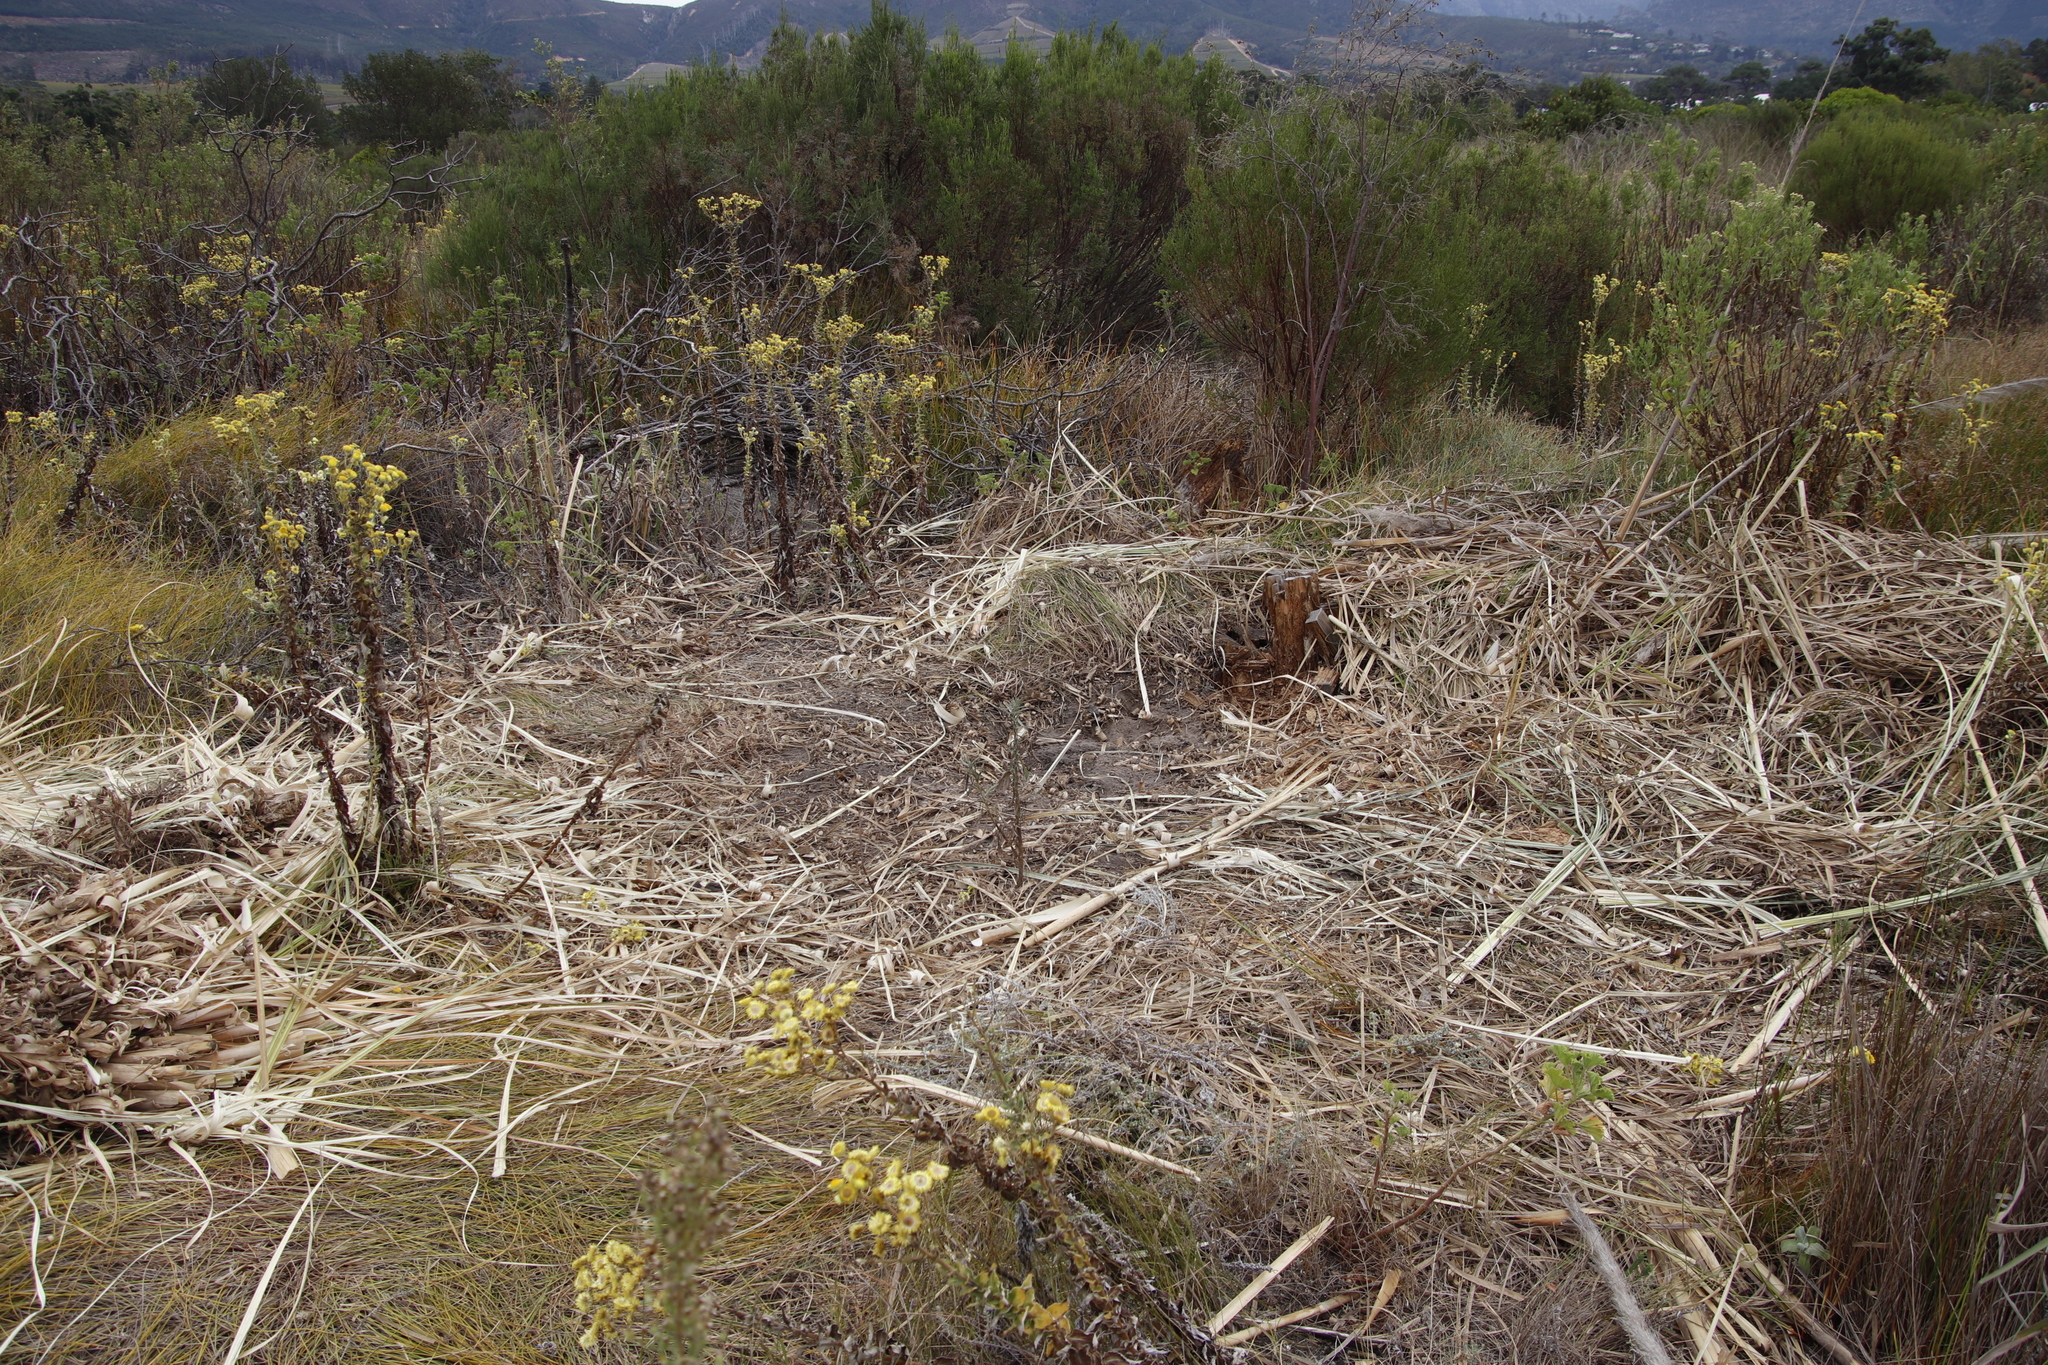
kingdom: Plantae
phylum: Tracheophyta
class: Liliopsida
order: Poales
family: Poaceae
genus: Cortaderia
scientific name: Cortaderia selloana
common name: Uruguayan pampas grass
